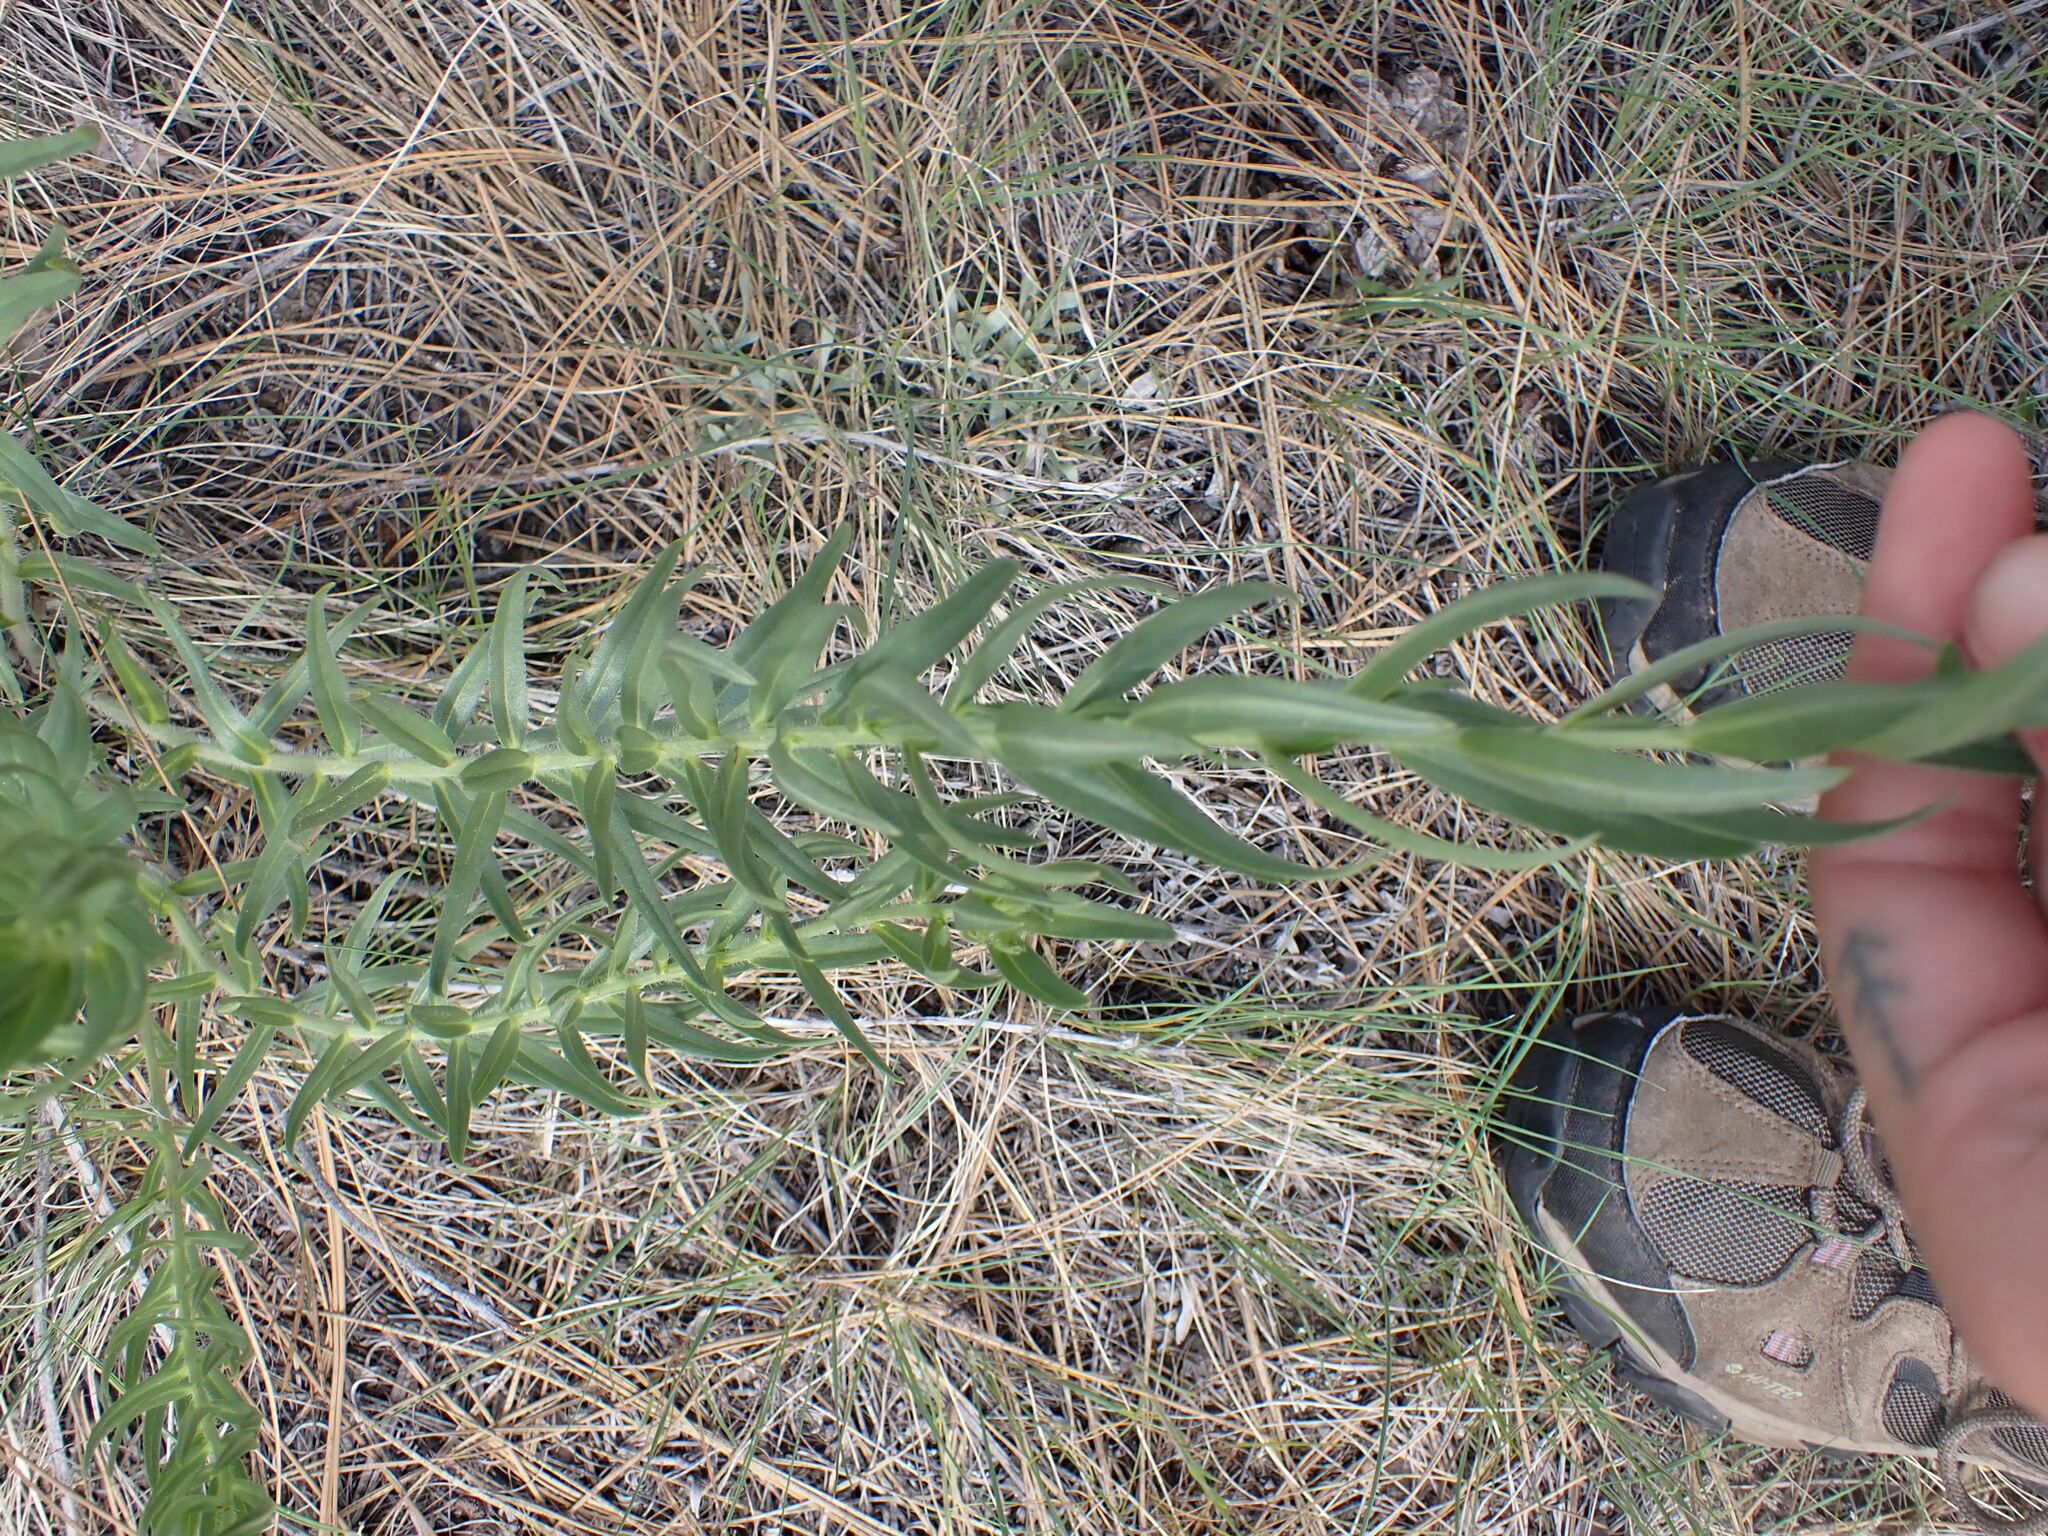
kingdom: Plantae
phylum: Tracheophyta
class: Magnoliopsida
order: Boraginales
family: Boraginaceae
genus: Lithospermum
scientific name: Lithospermum ruderale
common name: Western gromwell
